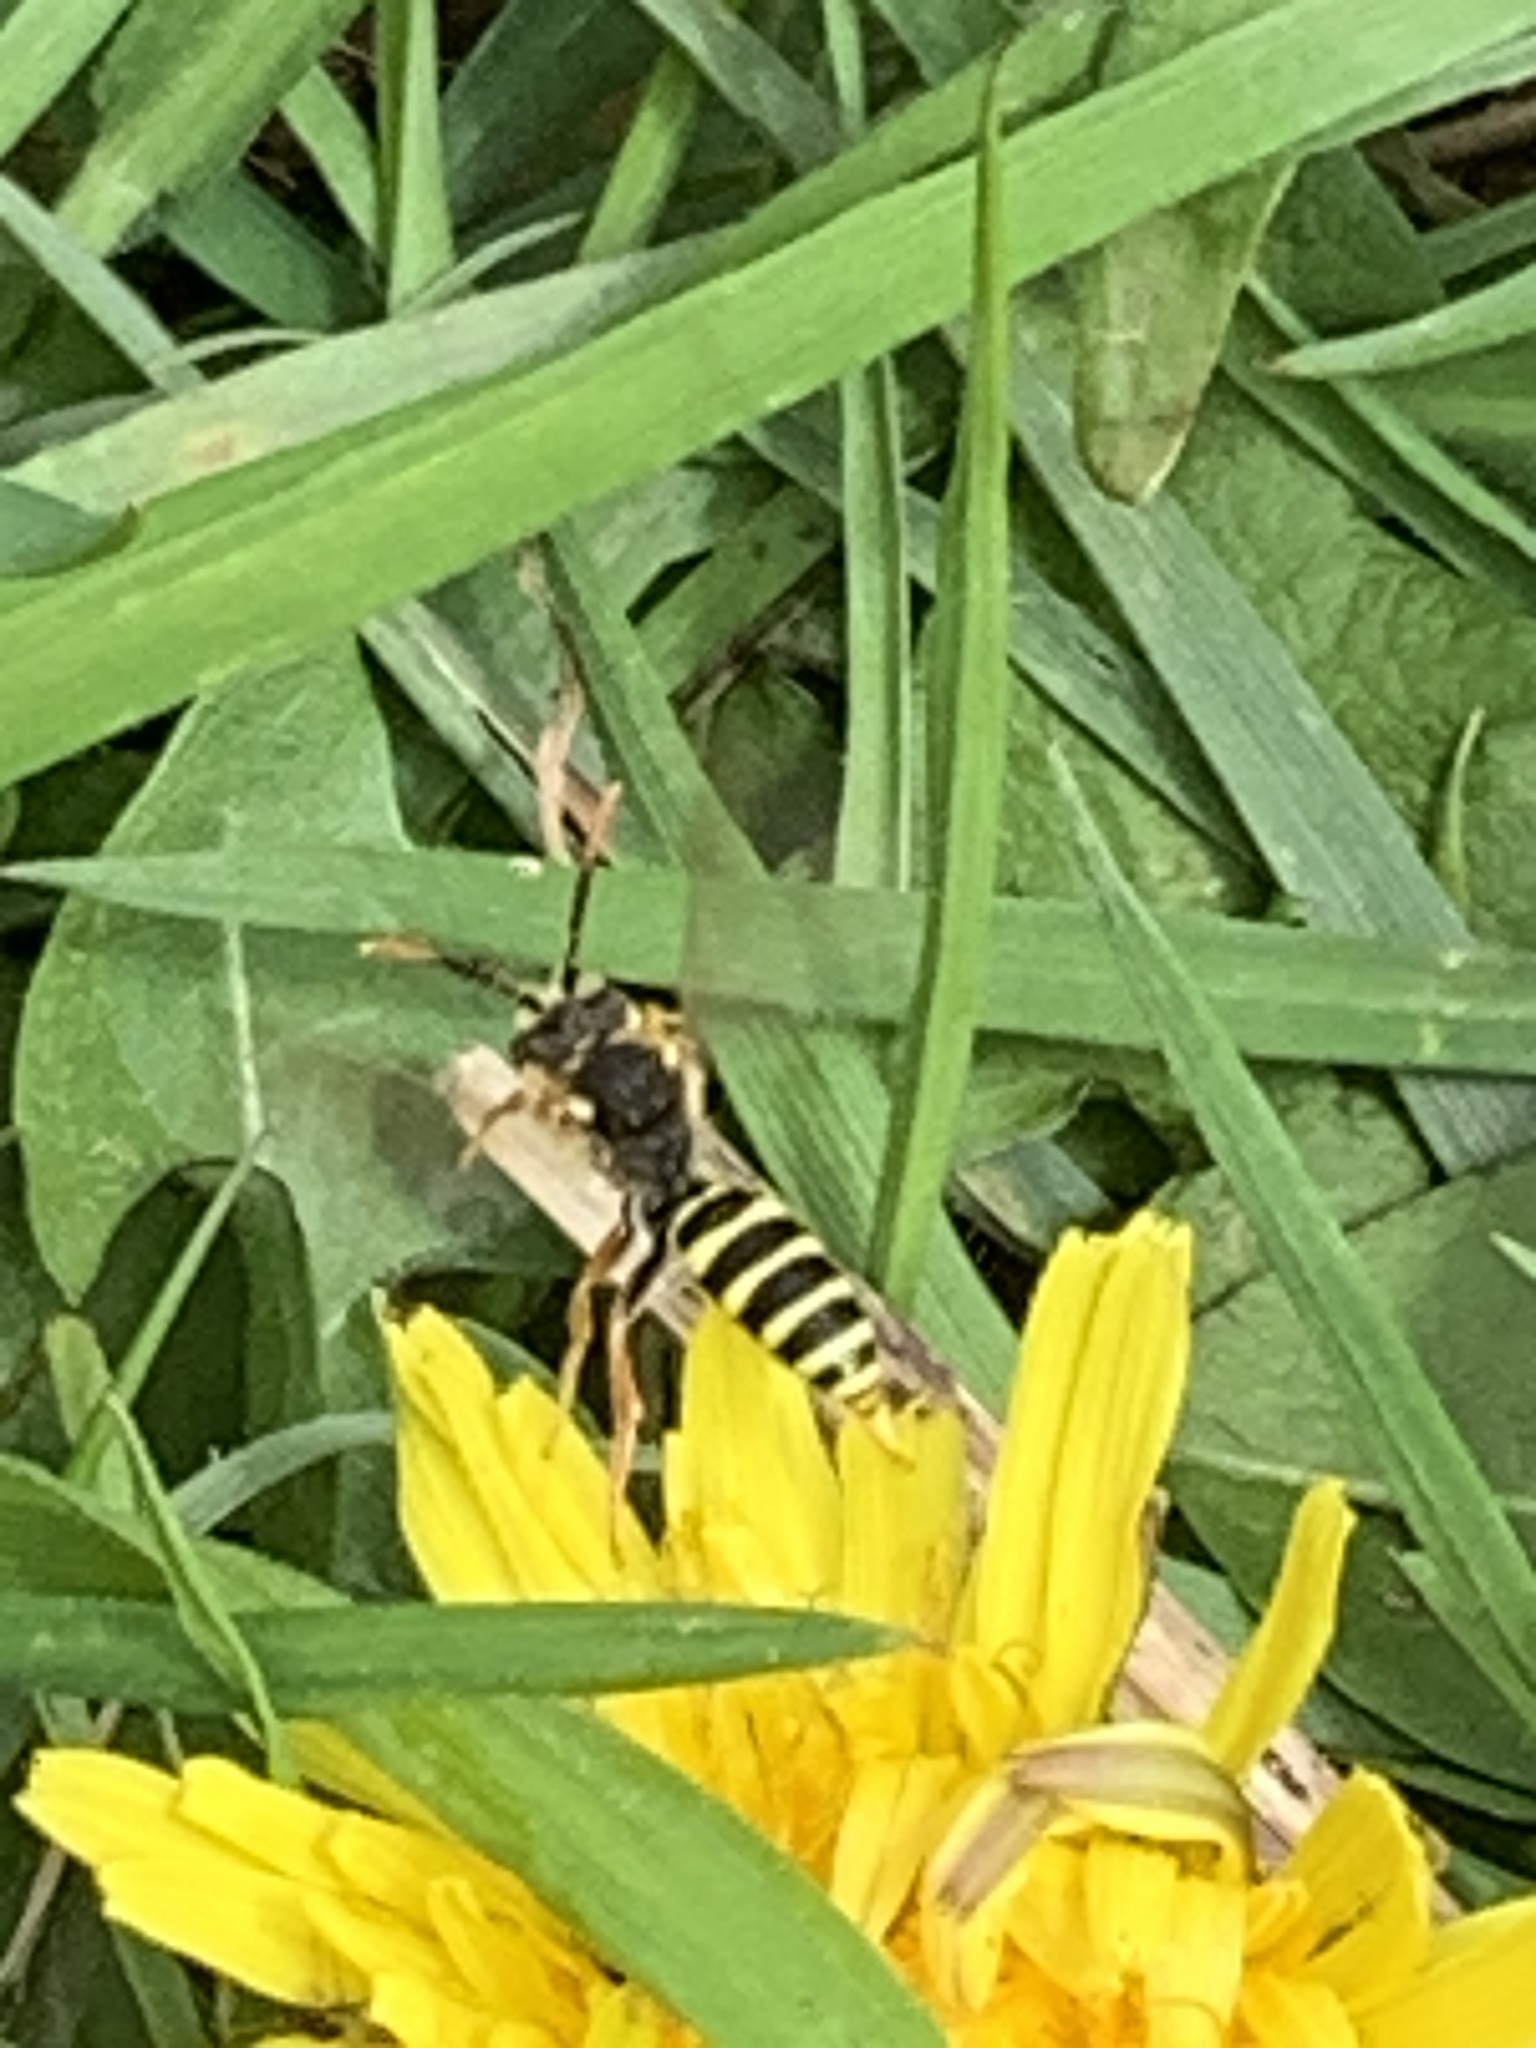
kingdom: Animalia
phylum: Arthropoda
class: Insecta
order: Hymenoptera
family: Apidae
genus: Nomada
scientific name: Nomada goodeniana
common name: Gooden's nomad bee
